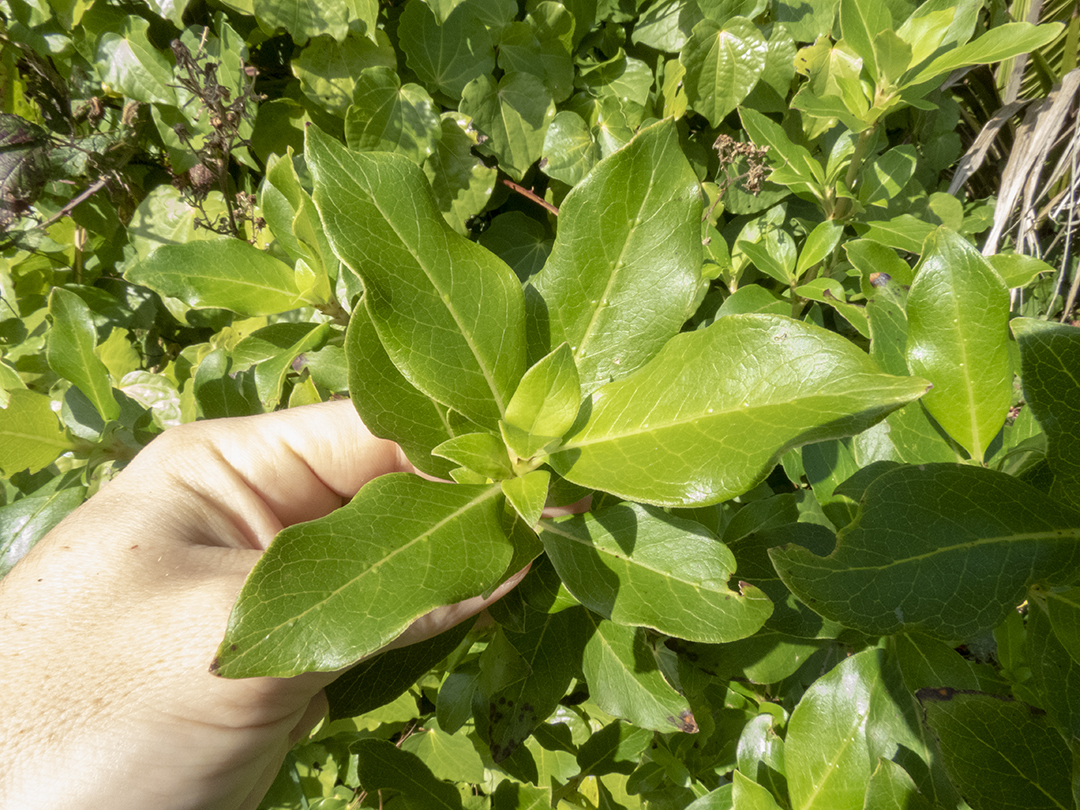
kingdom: Plantae
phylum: Tracheophyta
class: Magnoliopsida
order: Gentianales
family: Rubiaceae
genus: Coprosma
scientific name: Coprosma lucida
